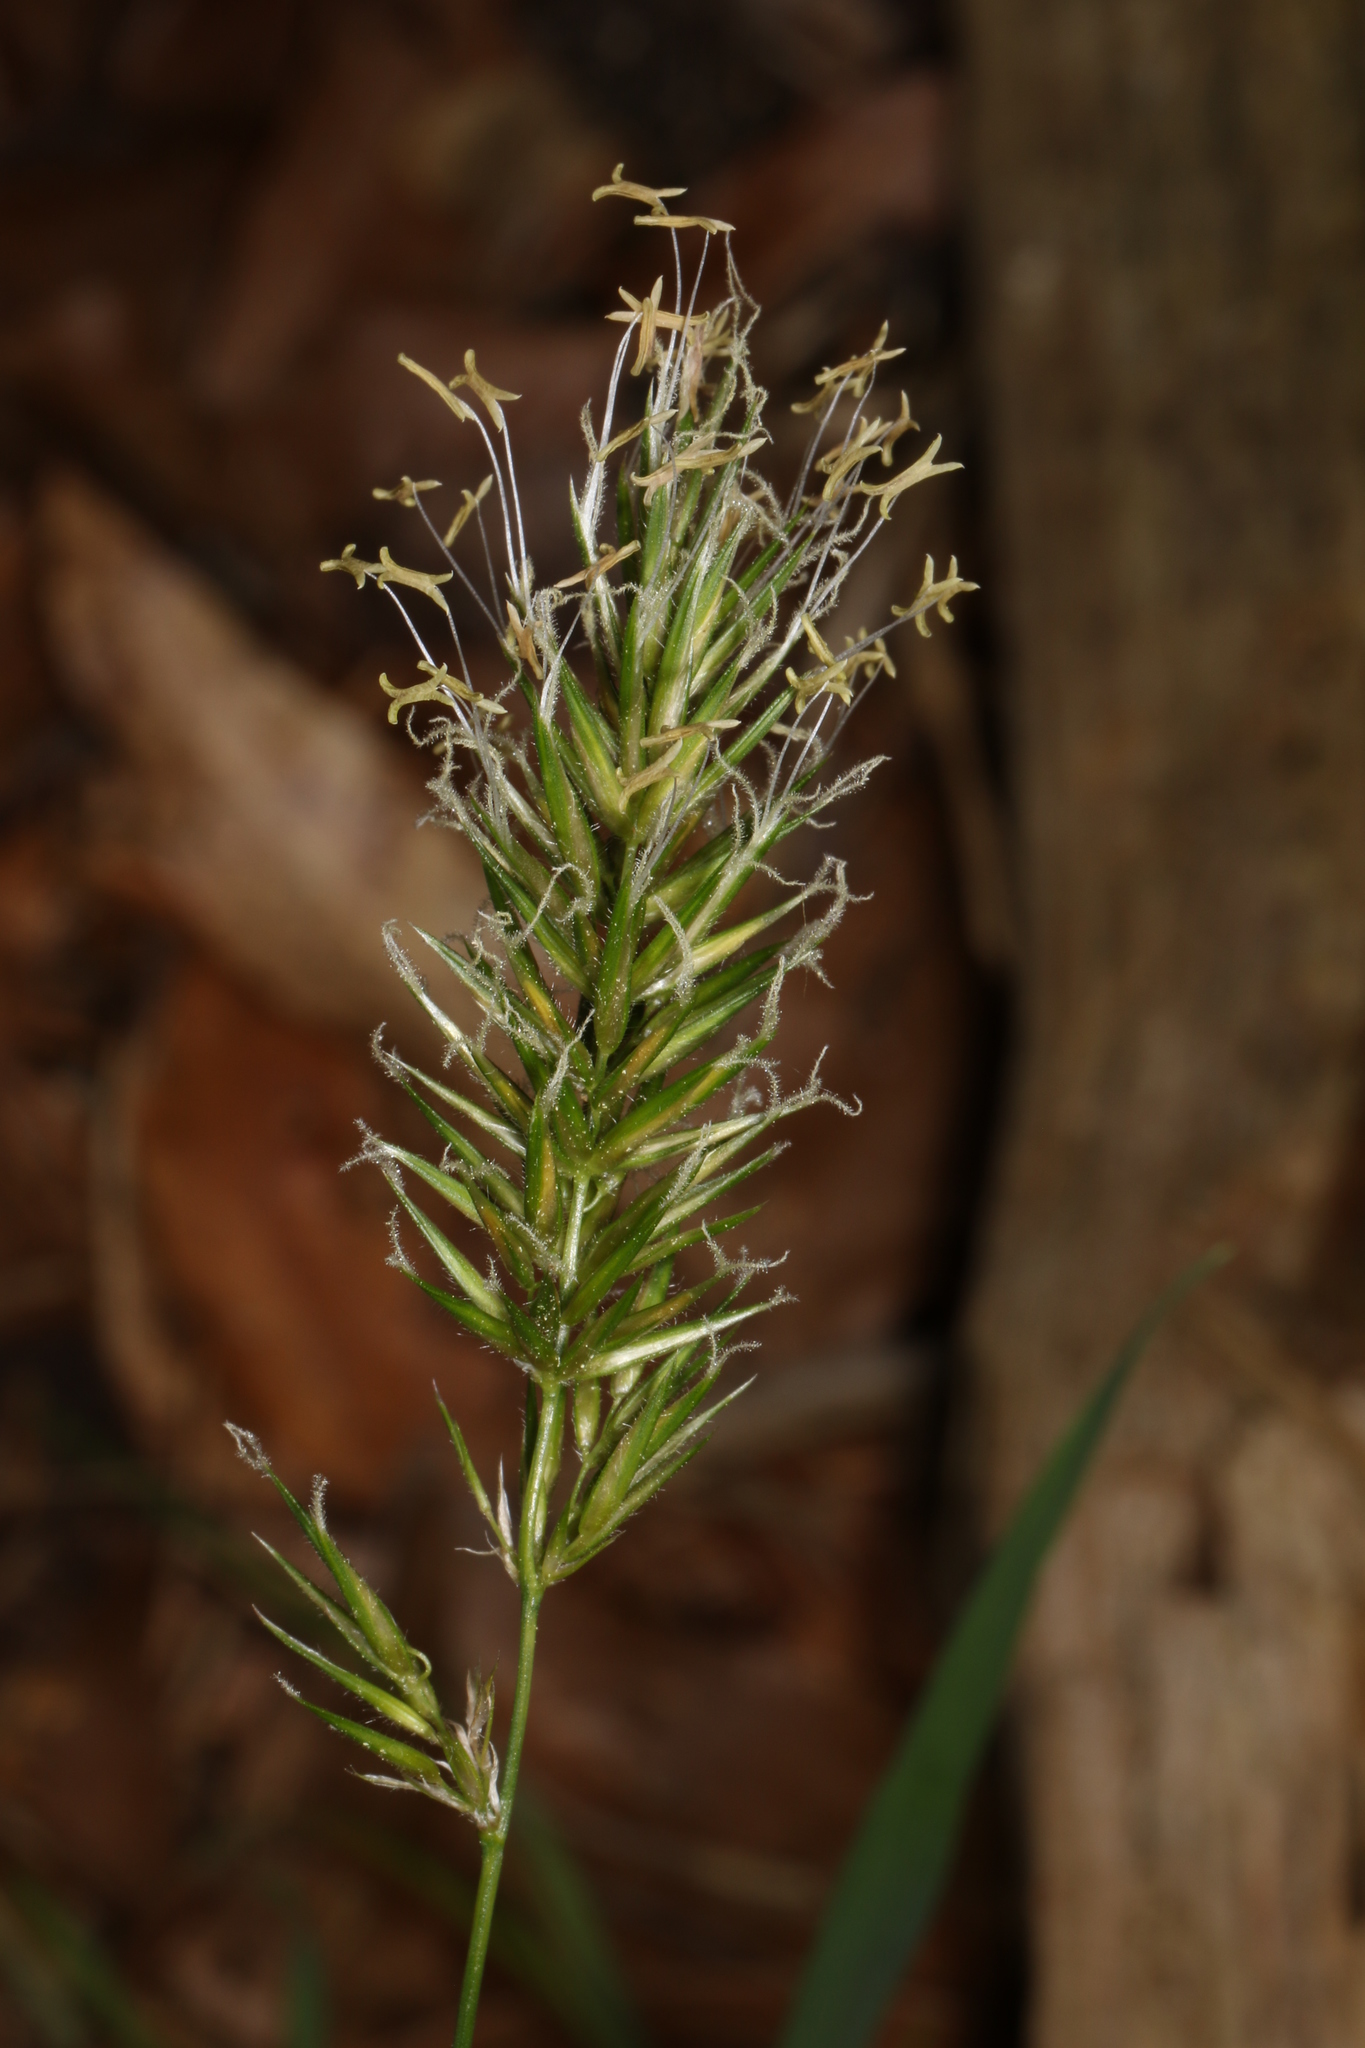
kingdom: Plantae
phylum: Tracheophyta
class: Liliopsida
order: Poales
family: Poaceae
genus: Anthoxanthum
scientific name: Anthoxanthum odoratum
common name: Sweet vernalgrass
